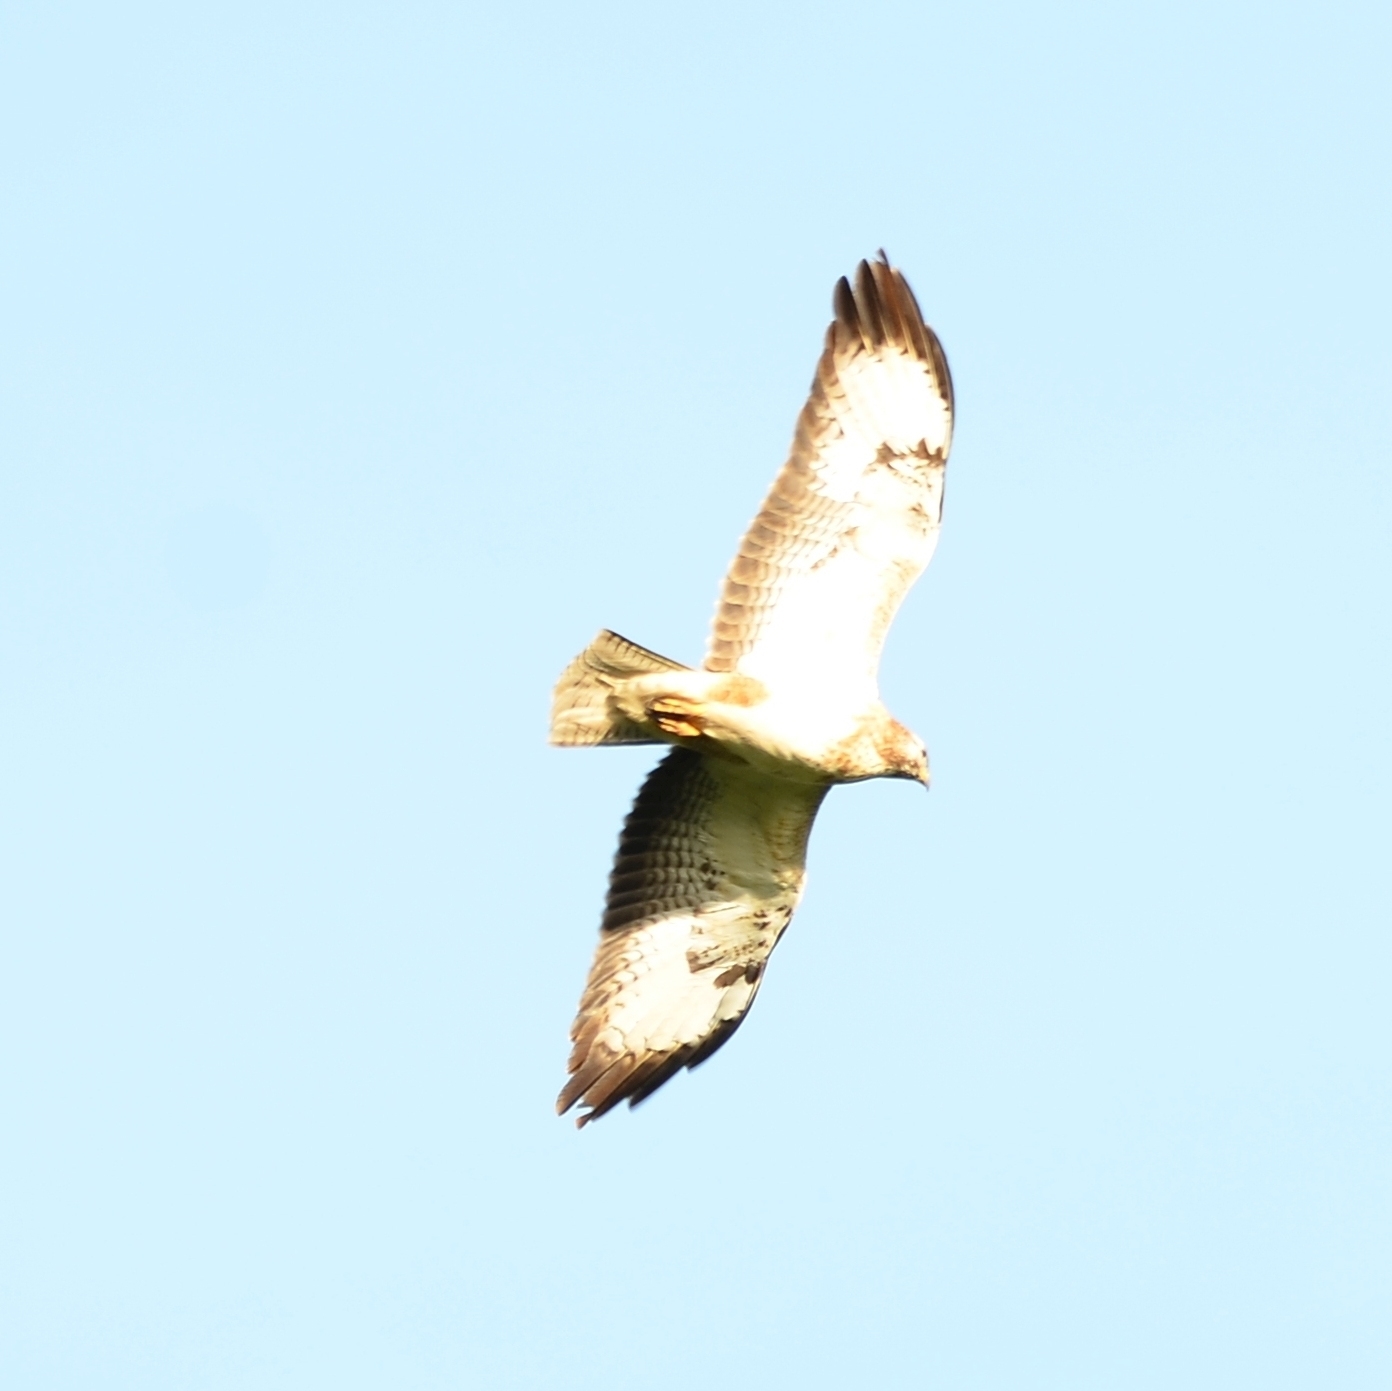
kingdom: Animalia
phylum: Chordata
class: Aves
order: Accipitriformes
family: Accipitridae
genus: Buteo
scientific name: Buteo buteo
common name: Common buzzard
